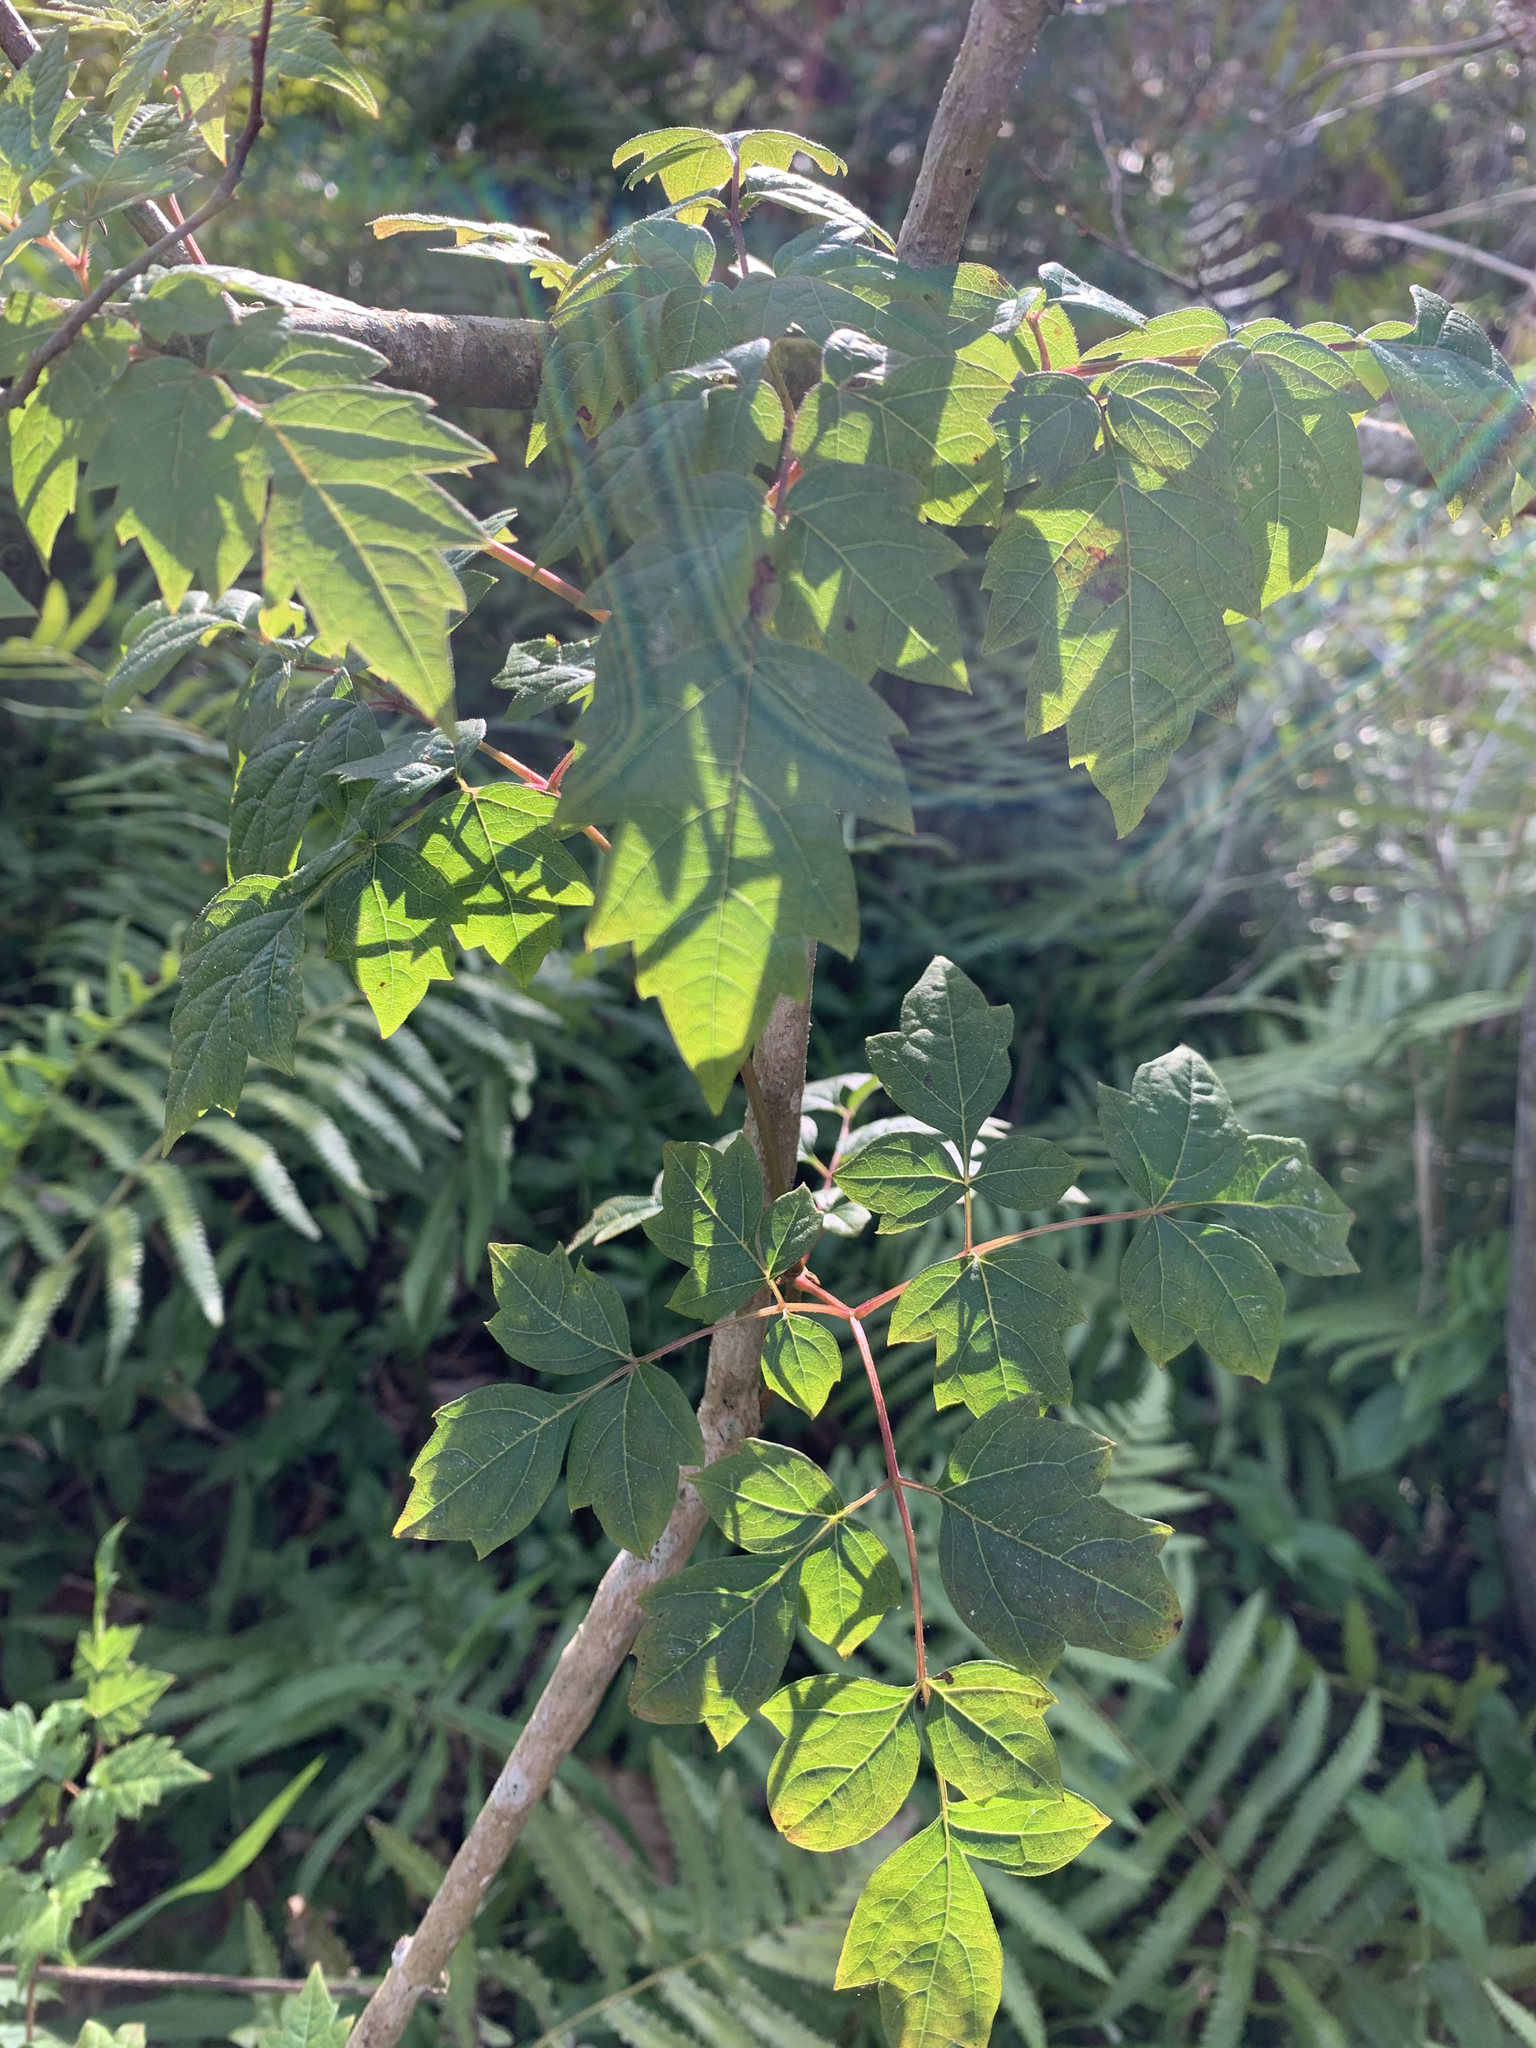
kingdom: Plantae
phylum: Tracheophyta
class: Magnoliopsida
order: Vitales
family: Vitaceae
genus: Nekemias
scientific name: Nekemias arborea
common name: Peppervine
